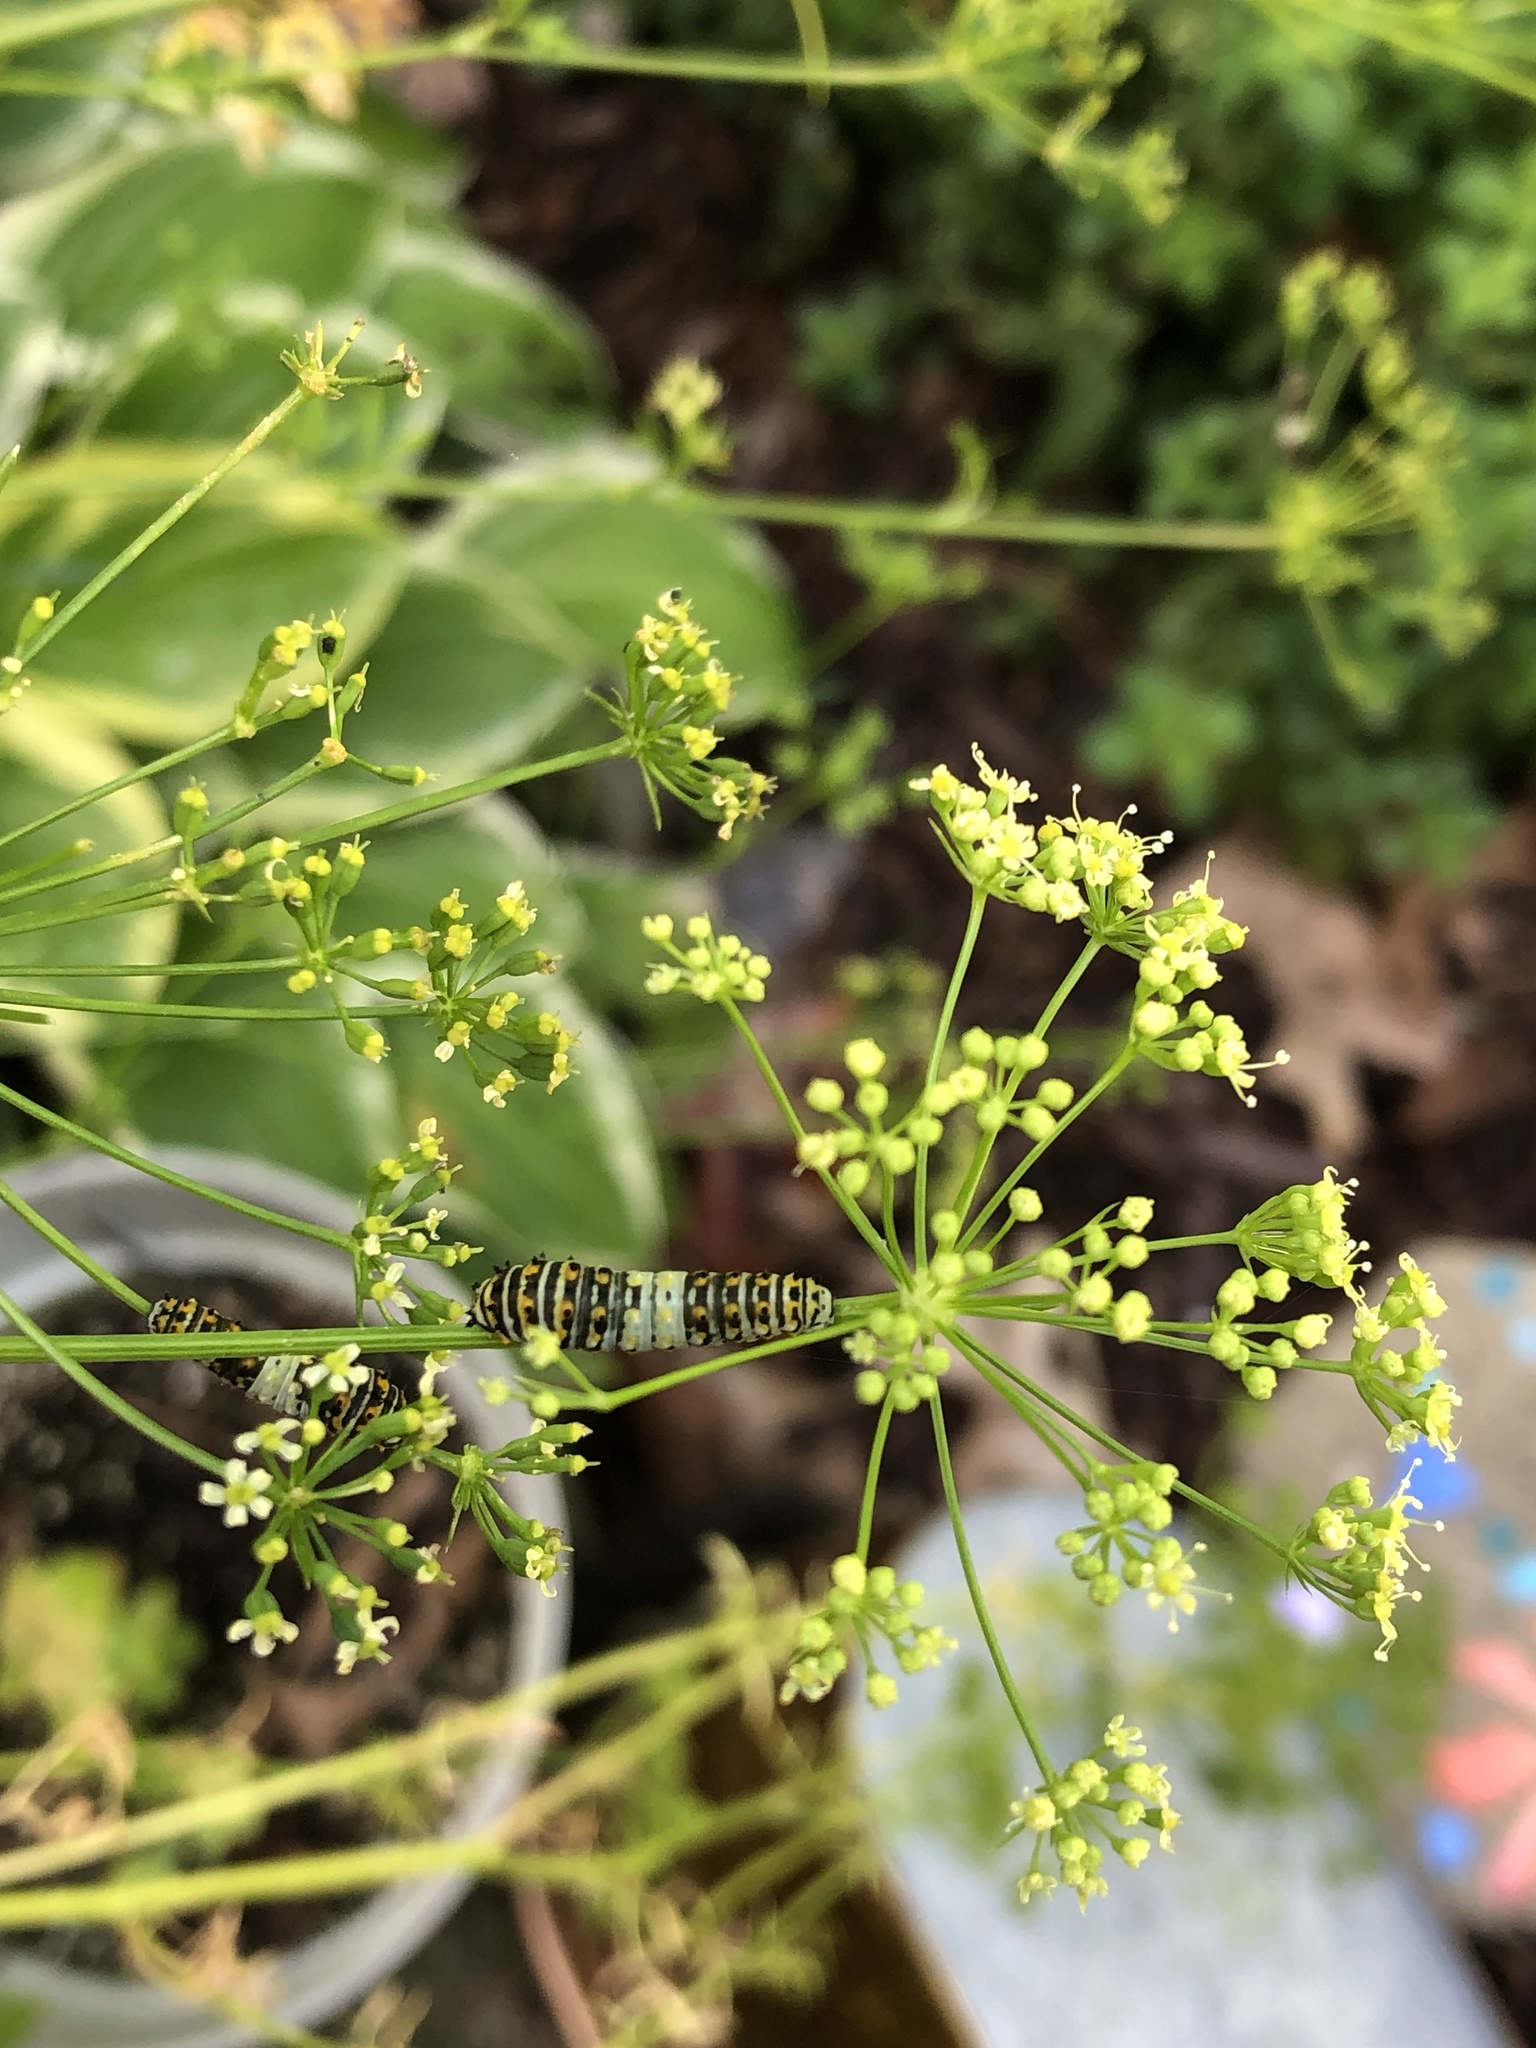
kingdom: Animalia
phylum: Arthropoda
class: Insecta
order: Lepidoptera
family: Papilionidae
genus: Papilio
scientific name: Papilio polyxenes
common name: Black swallowtail
